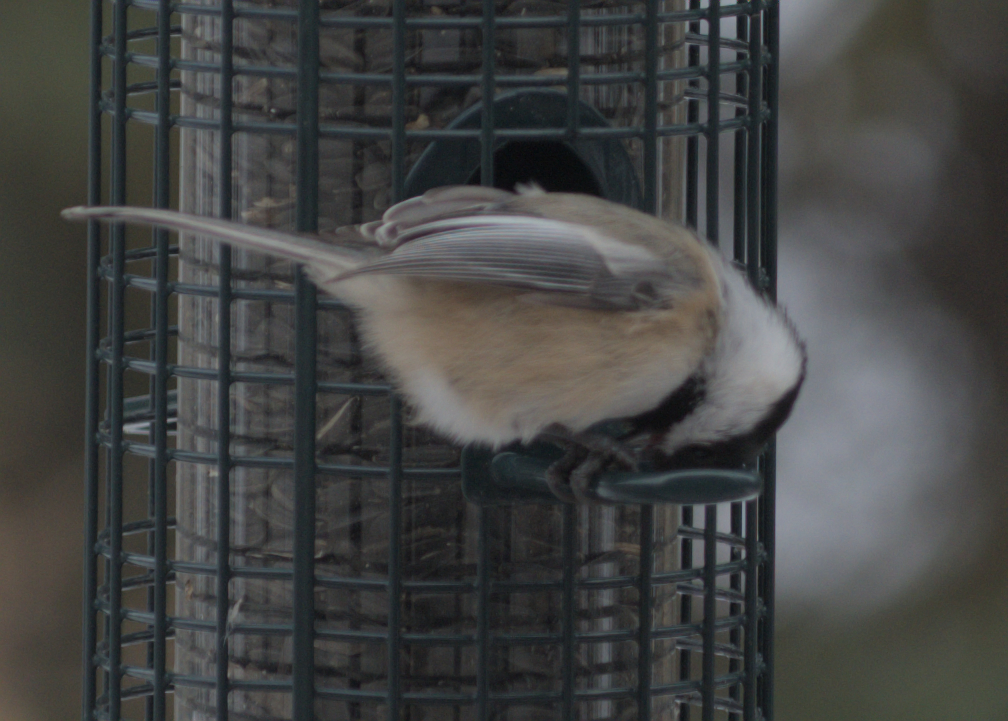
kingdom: Animalia
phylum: Chordata
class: Aves
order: Passeriformes
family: Paridae
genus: Poecile
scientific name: Poecile atricapillus
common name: Black-capped chickadee
